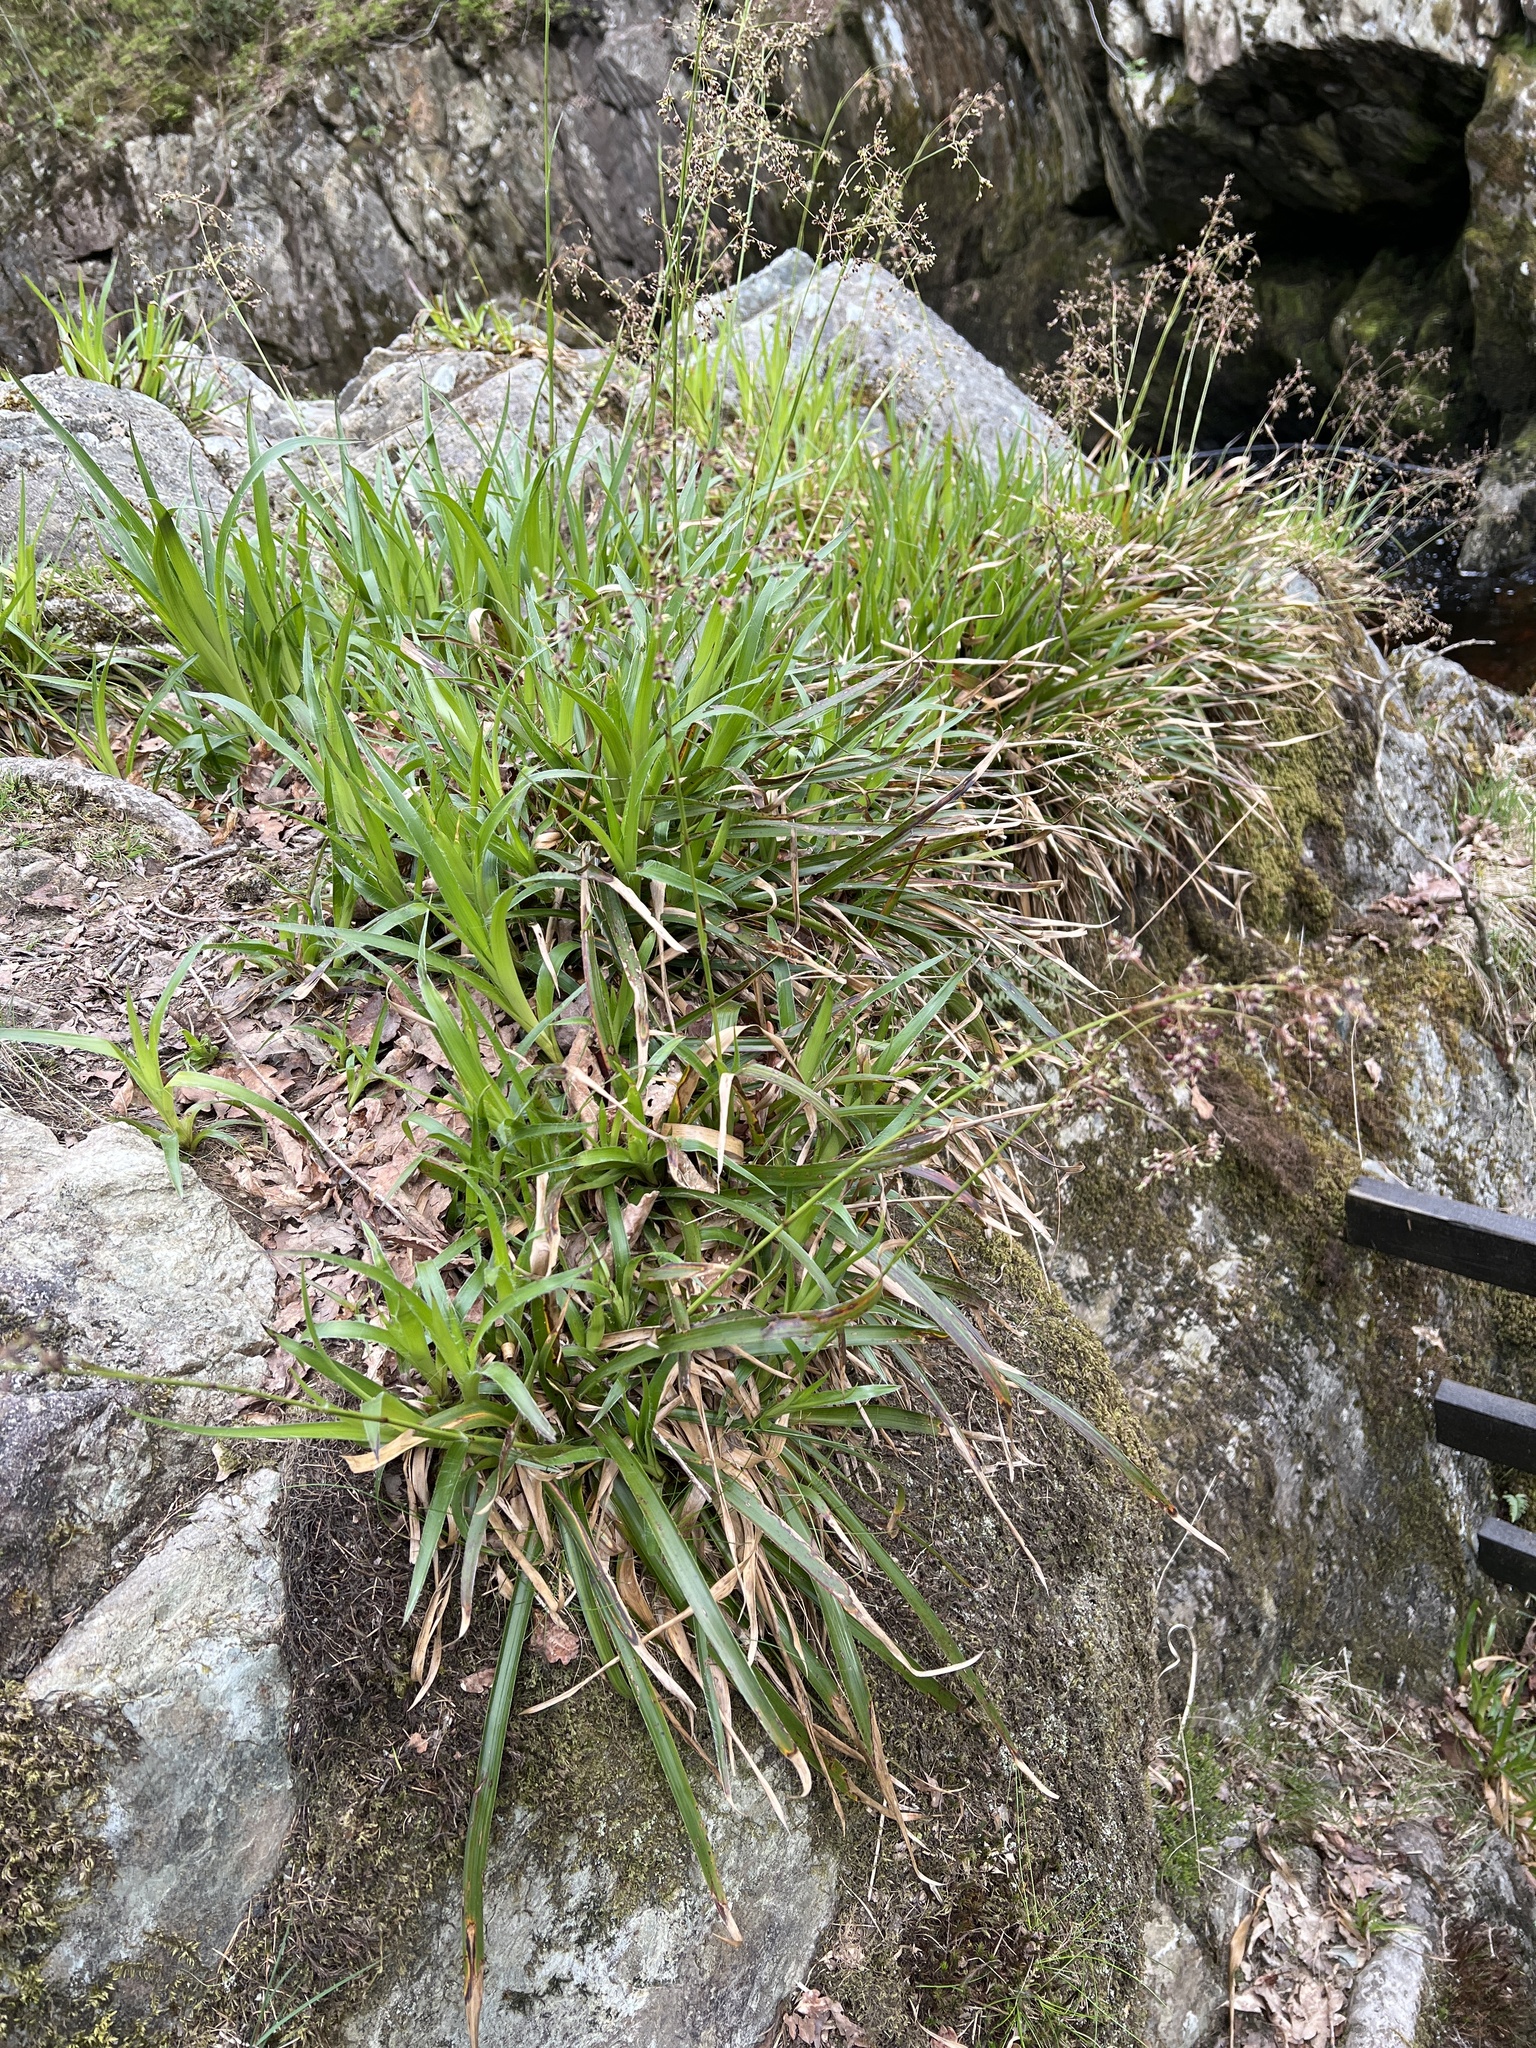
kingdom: Plantae
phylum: Tracheophyta
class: Liliopsida
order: Poales
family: Juncaceae
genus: Luzula
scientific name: Luzula sylvatica
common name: Great wood-rush
